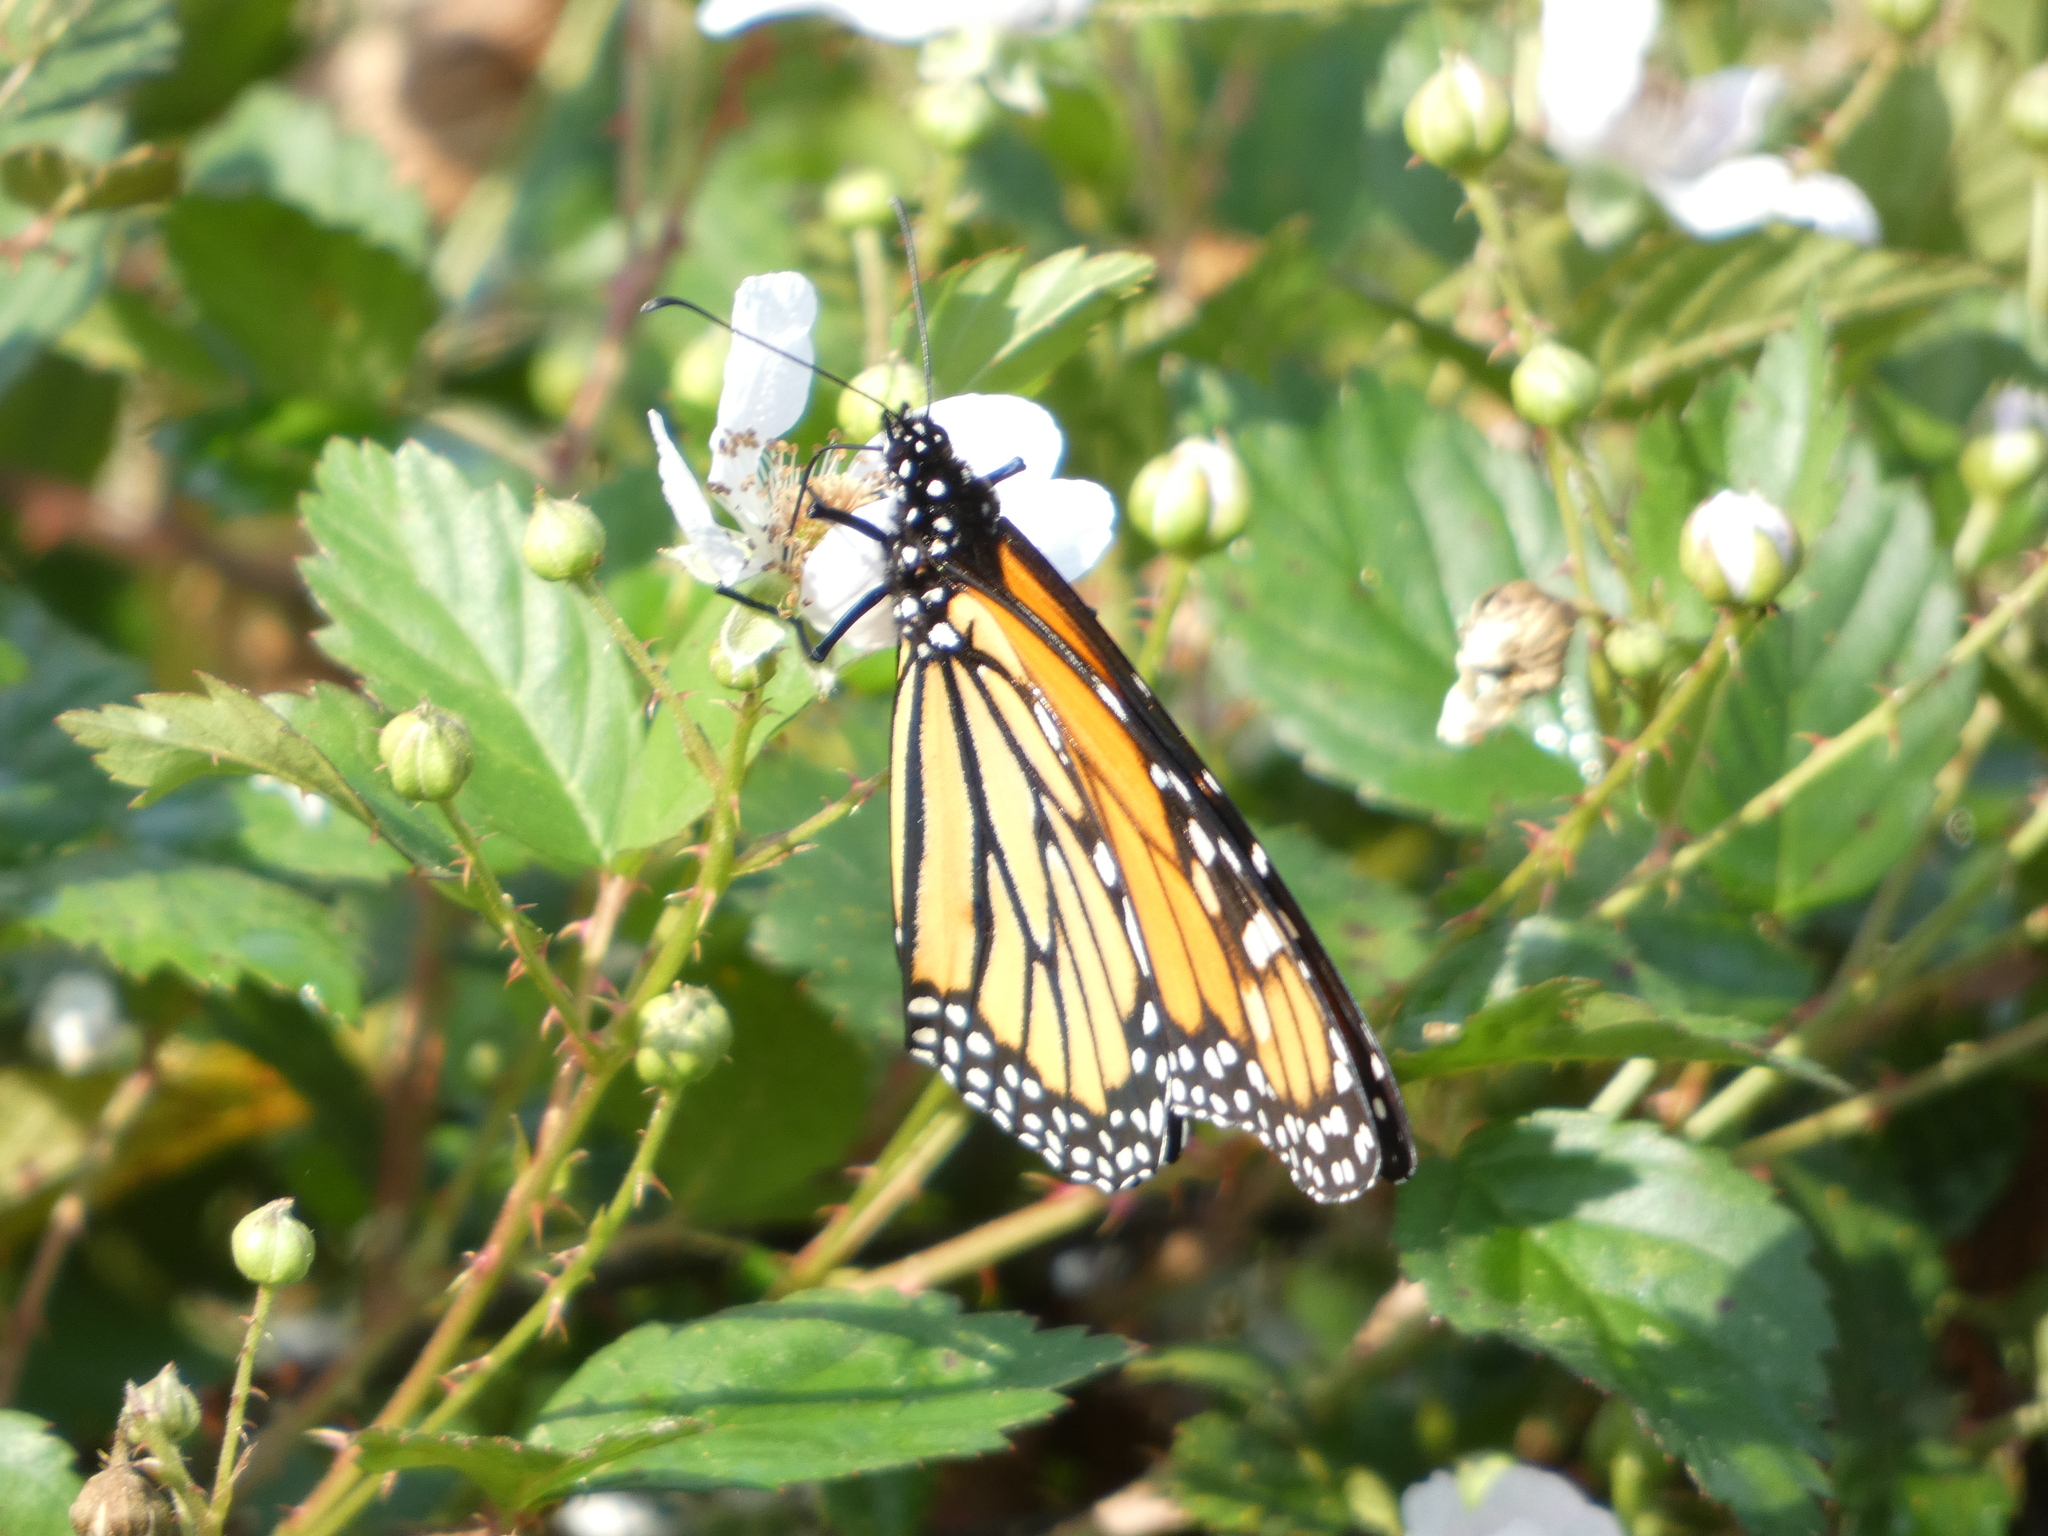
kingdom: Animalia
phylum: Arthropoda
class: Insecta
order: Lepidoptera
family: Nymphalidae
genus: Danaus
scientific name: Danaus plexippus
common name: Monarch
